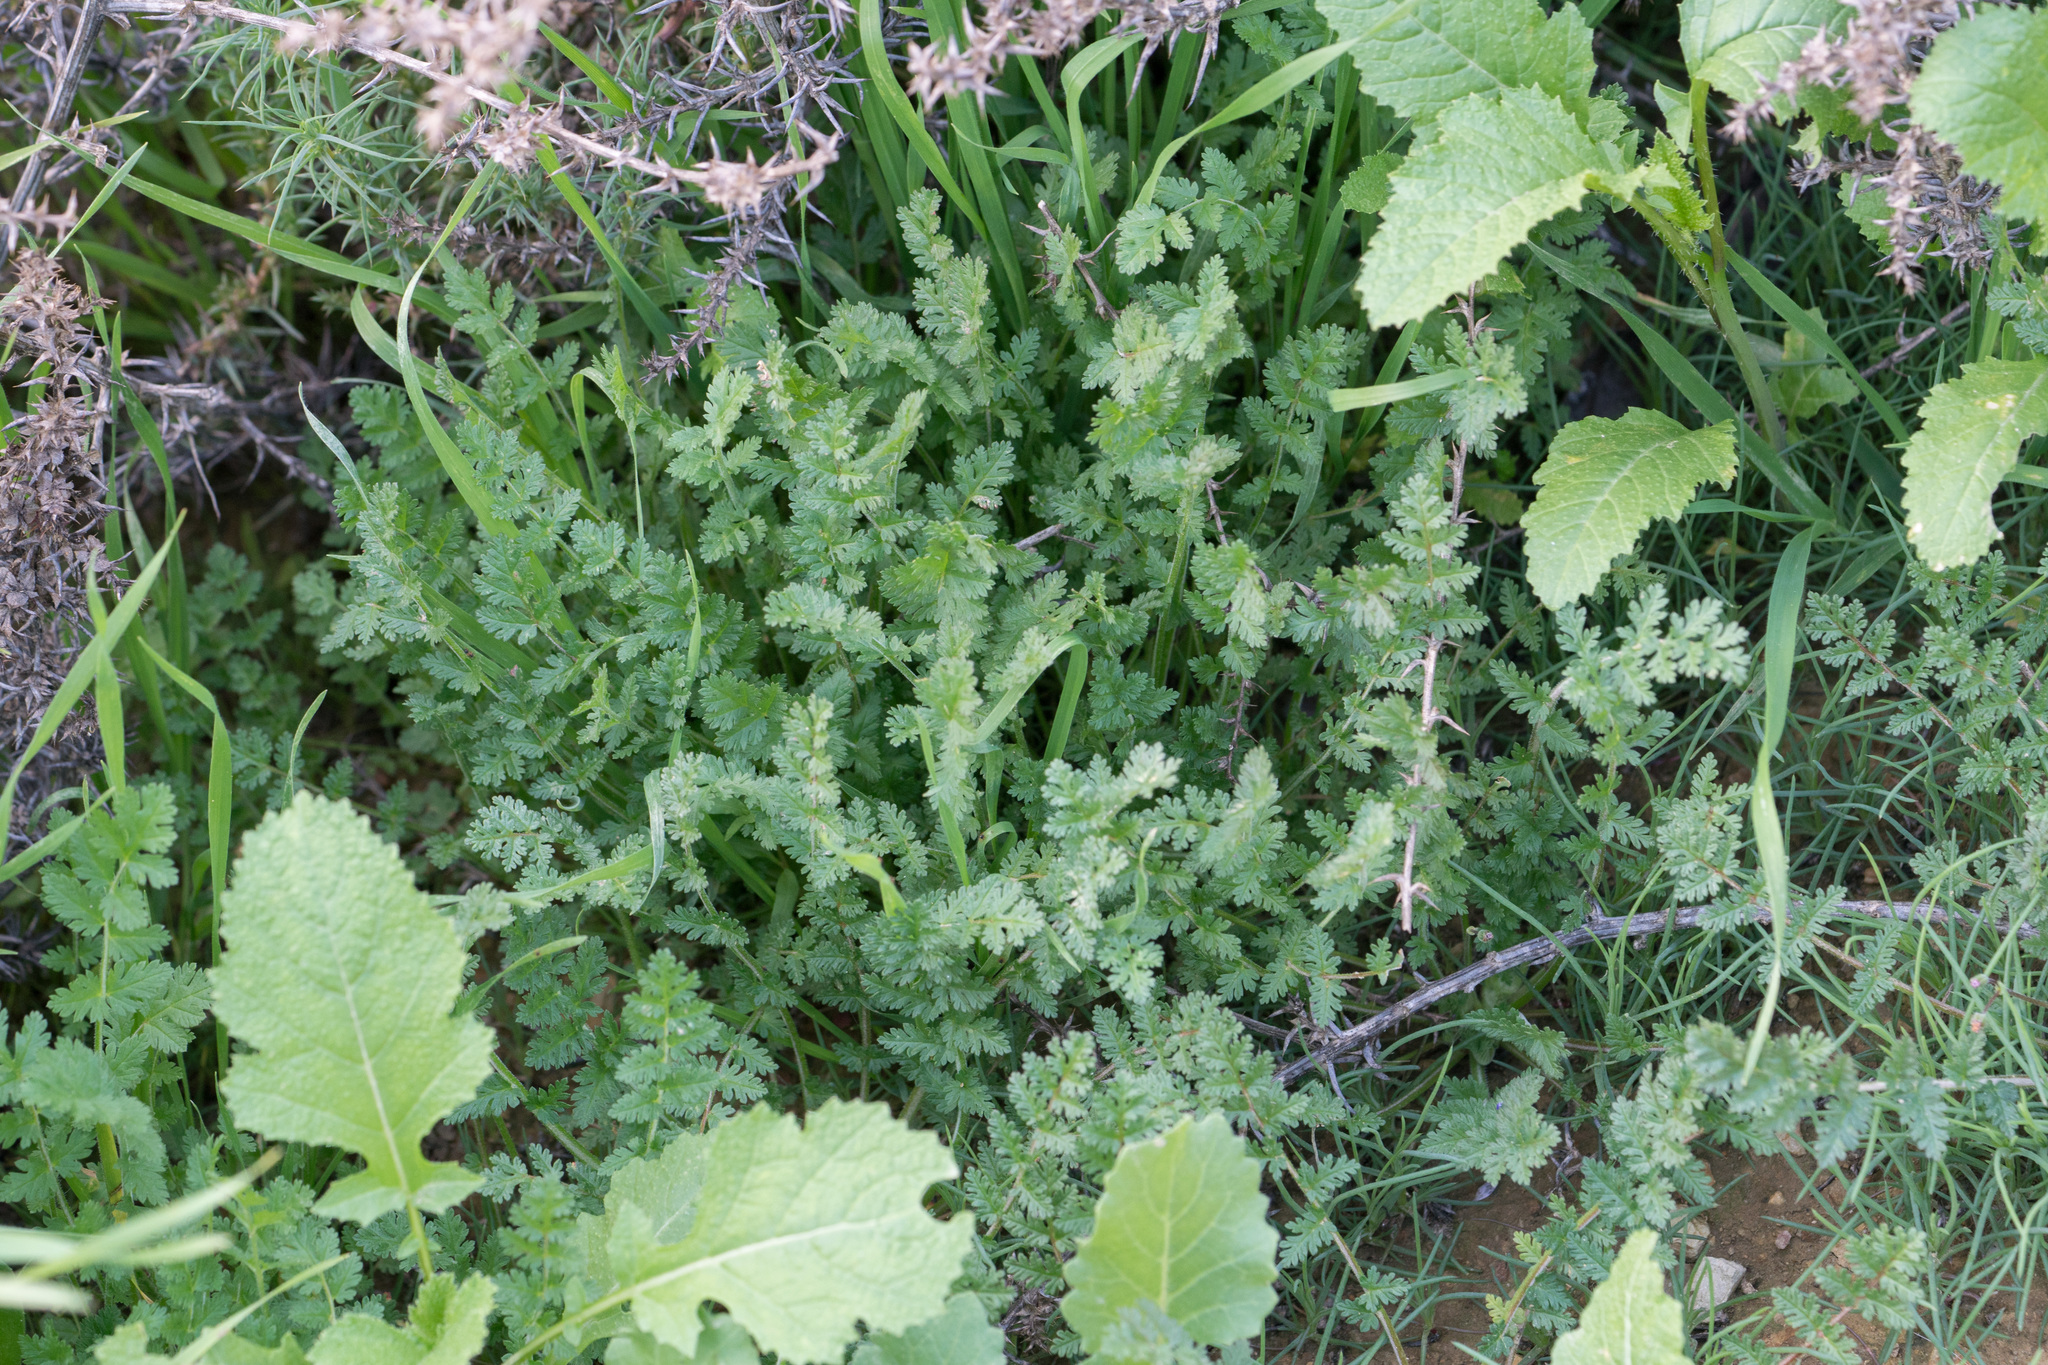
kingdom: Plantae
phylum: Tracheophyta
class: Magnoliopsida
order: Geraniales
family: Geraniaceae
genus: Erodium
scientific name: Erodium cicutarium
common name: Common stork's-bill
